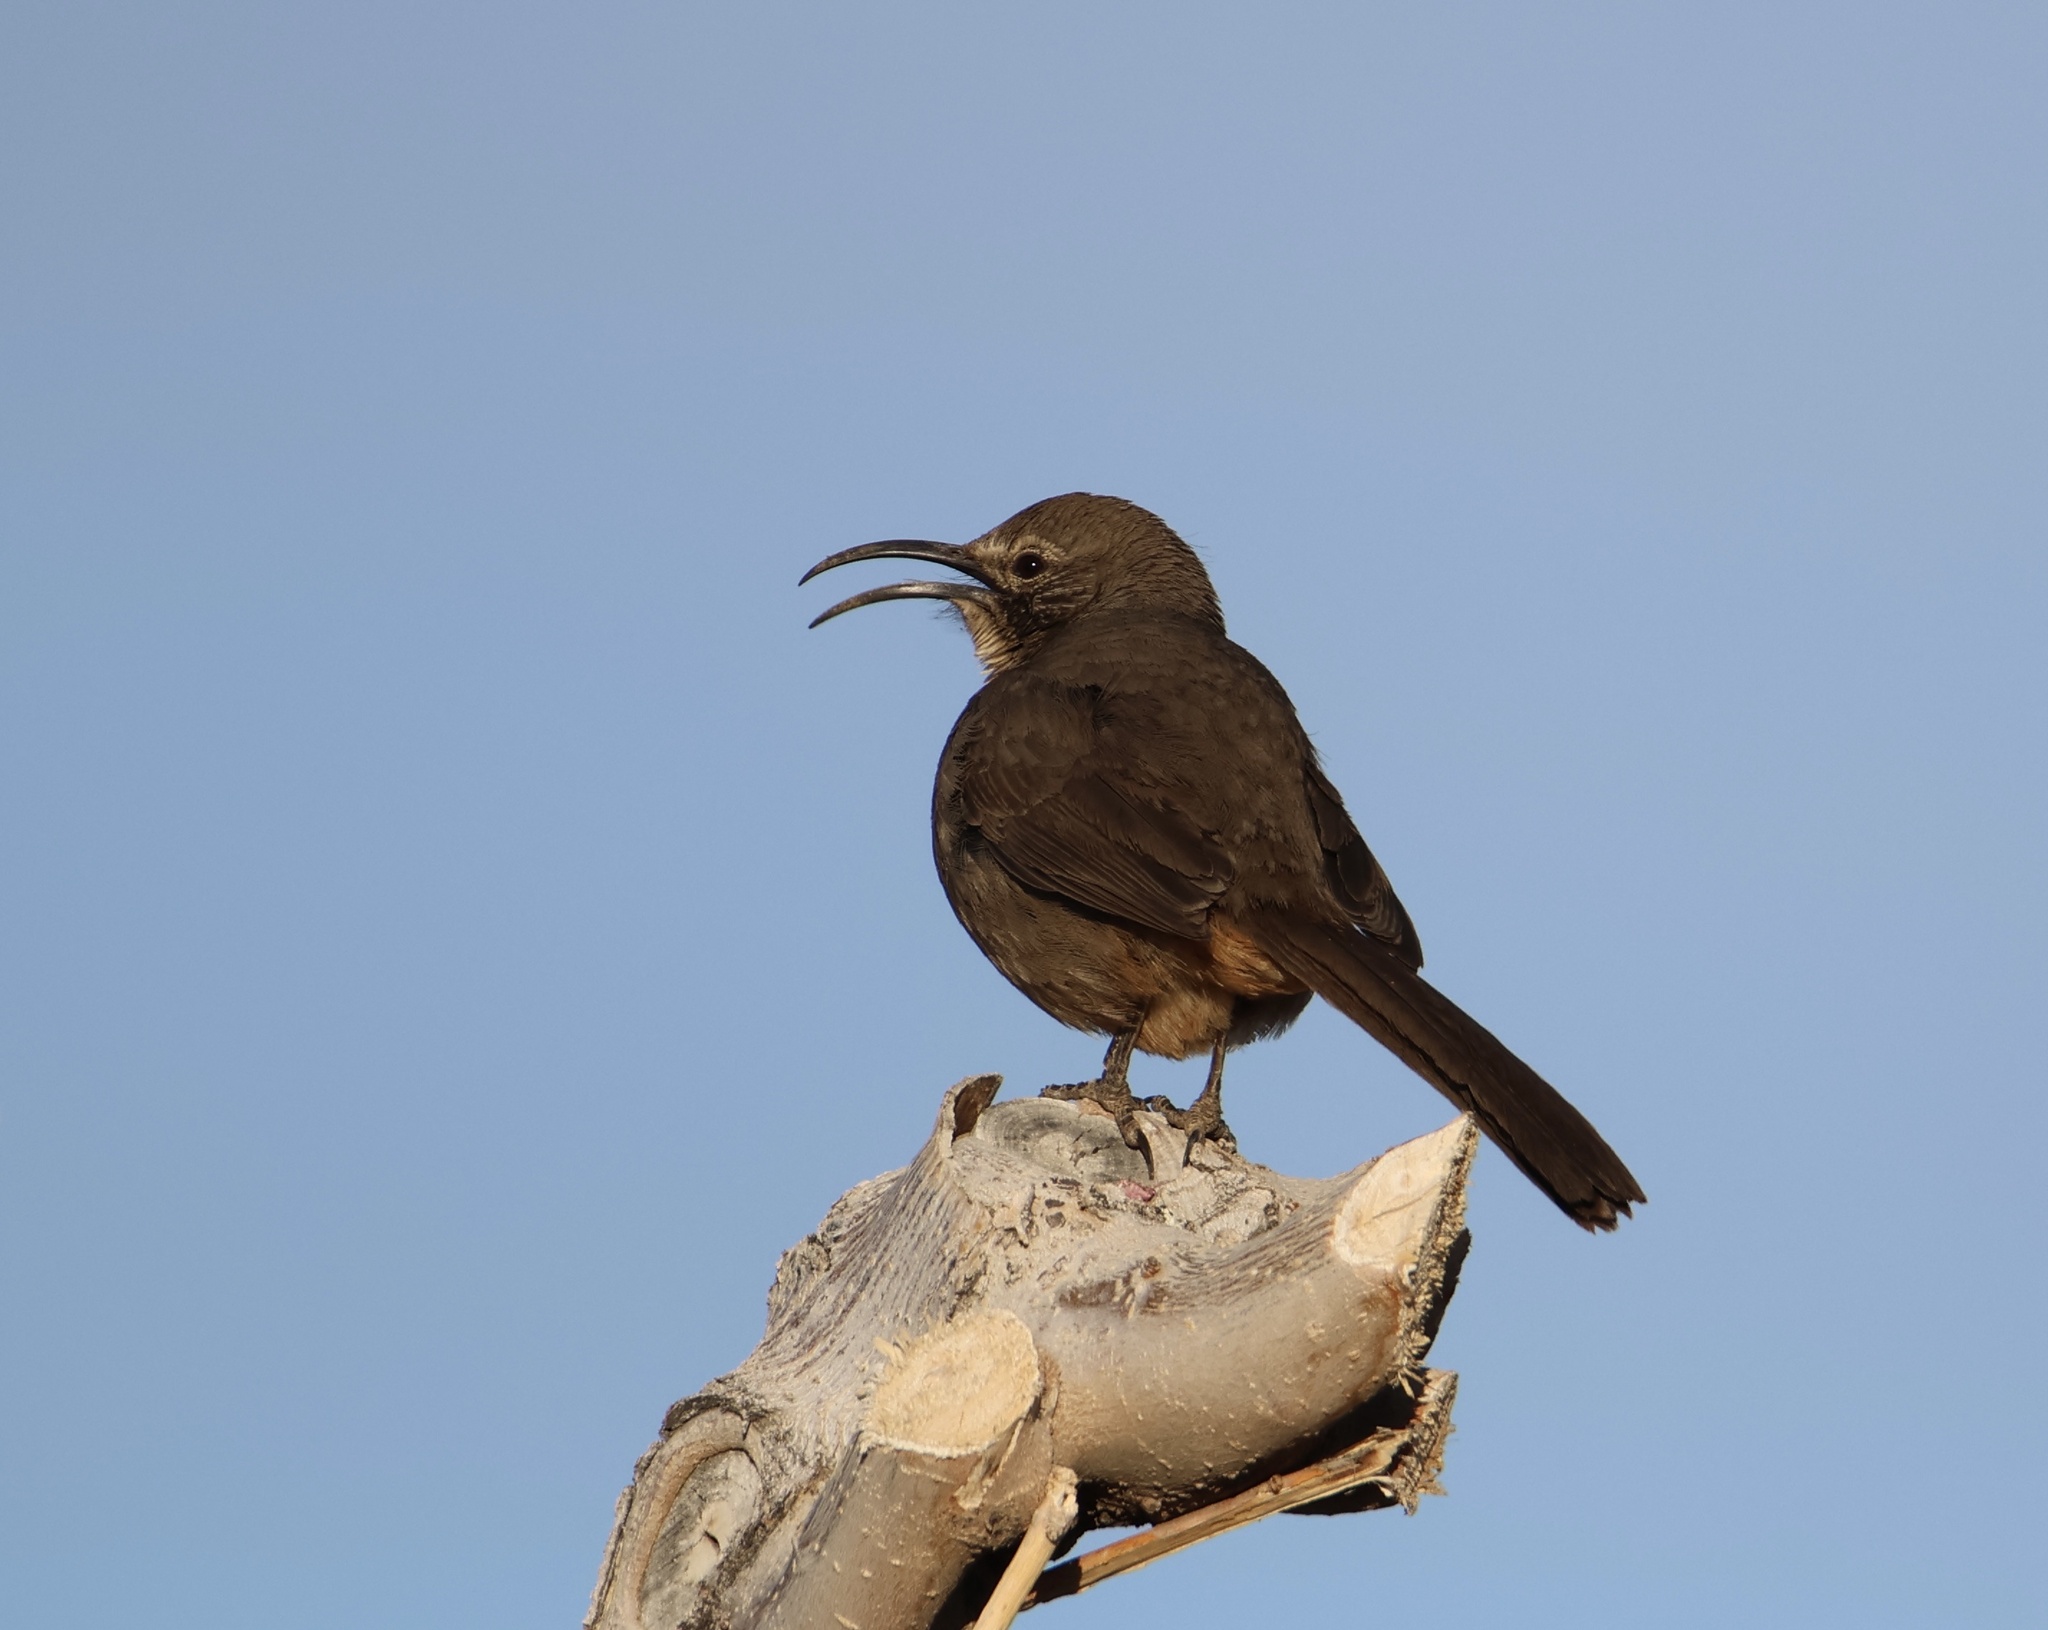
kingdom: Animalia
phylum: Chordata
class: Aves
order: Passeriformes
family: Mimidae
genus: Toxostoma
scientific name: Toxostoma redivivum
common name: California thrasher
